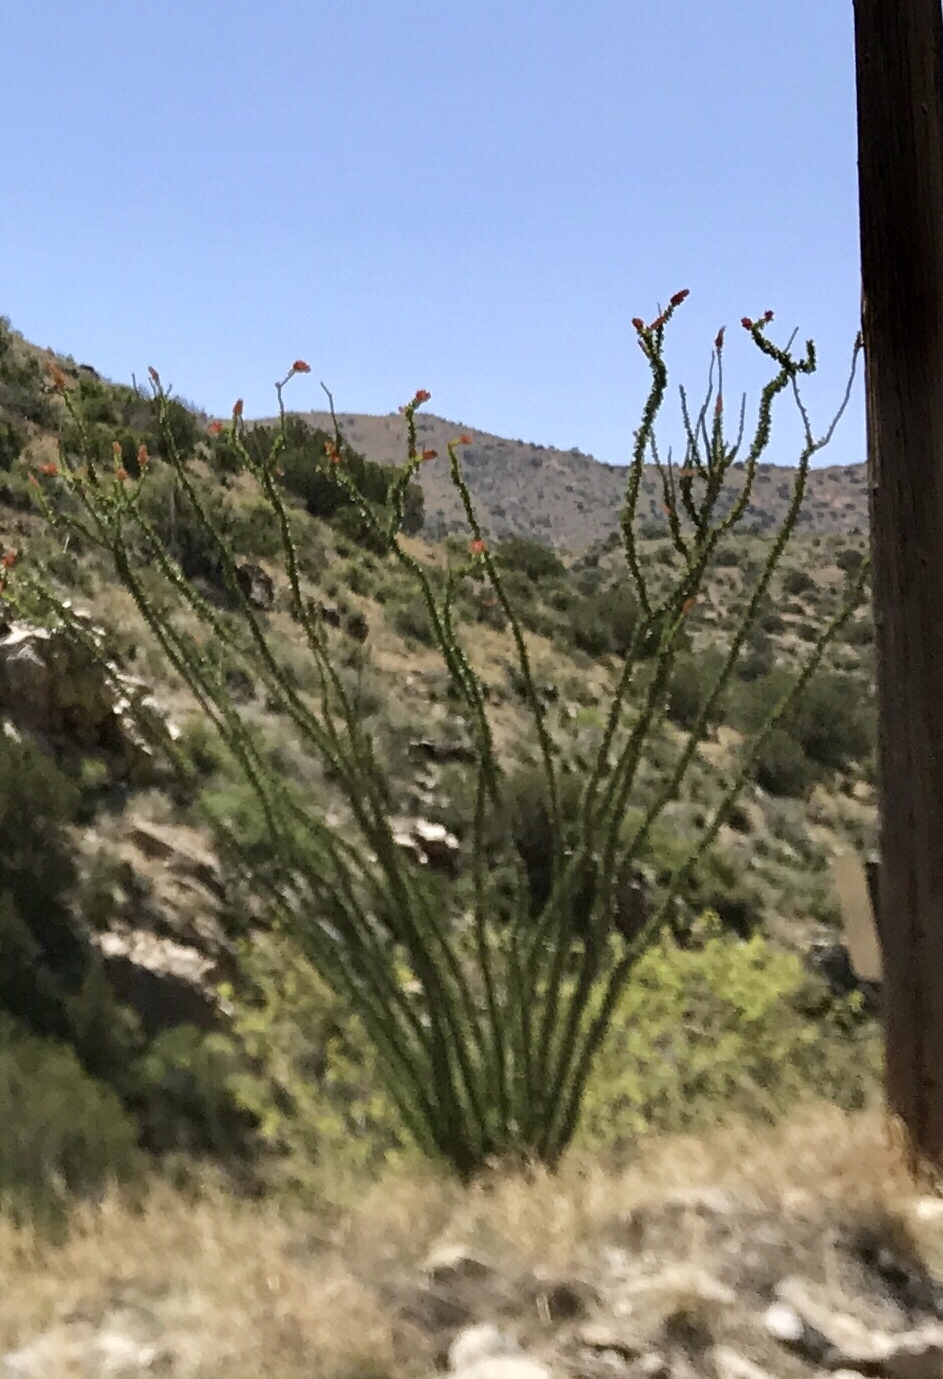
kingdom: Plantae
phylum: Tracheophyta
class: Magnoliopsida
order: Ericales
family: Fouquieriaceae
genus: Fouquieria
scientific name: Fouquieria splendens
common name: Vine-cactus
